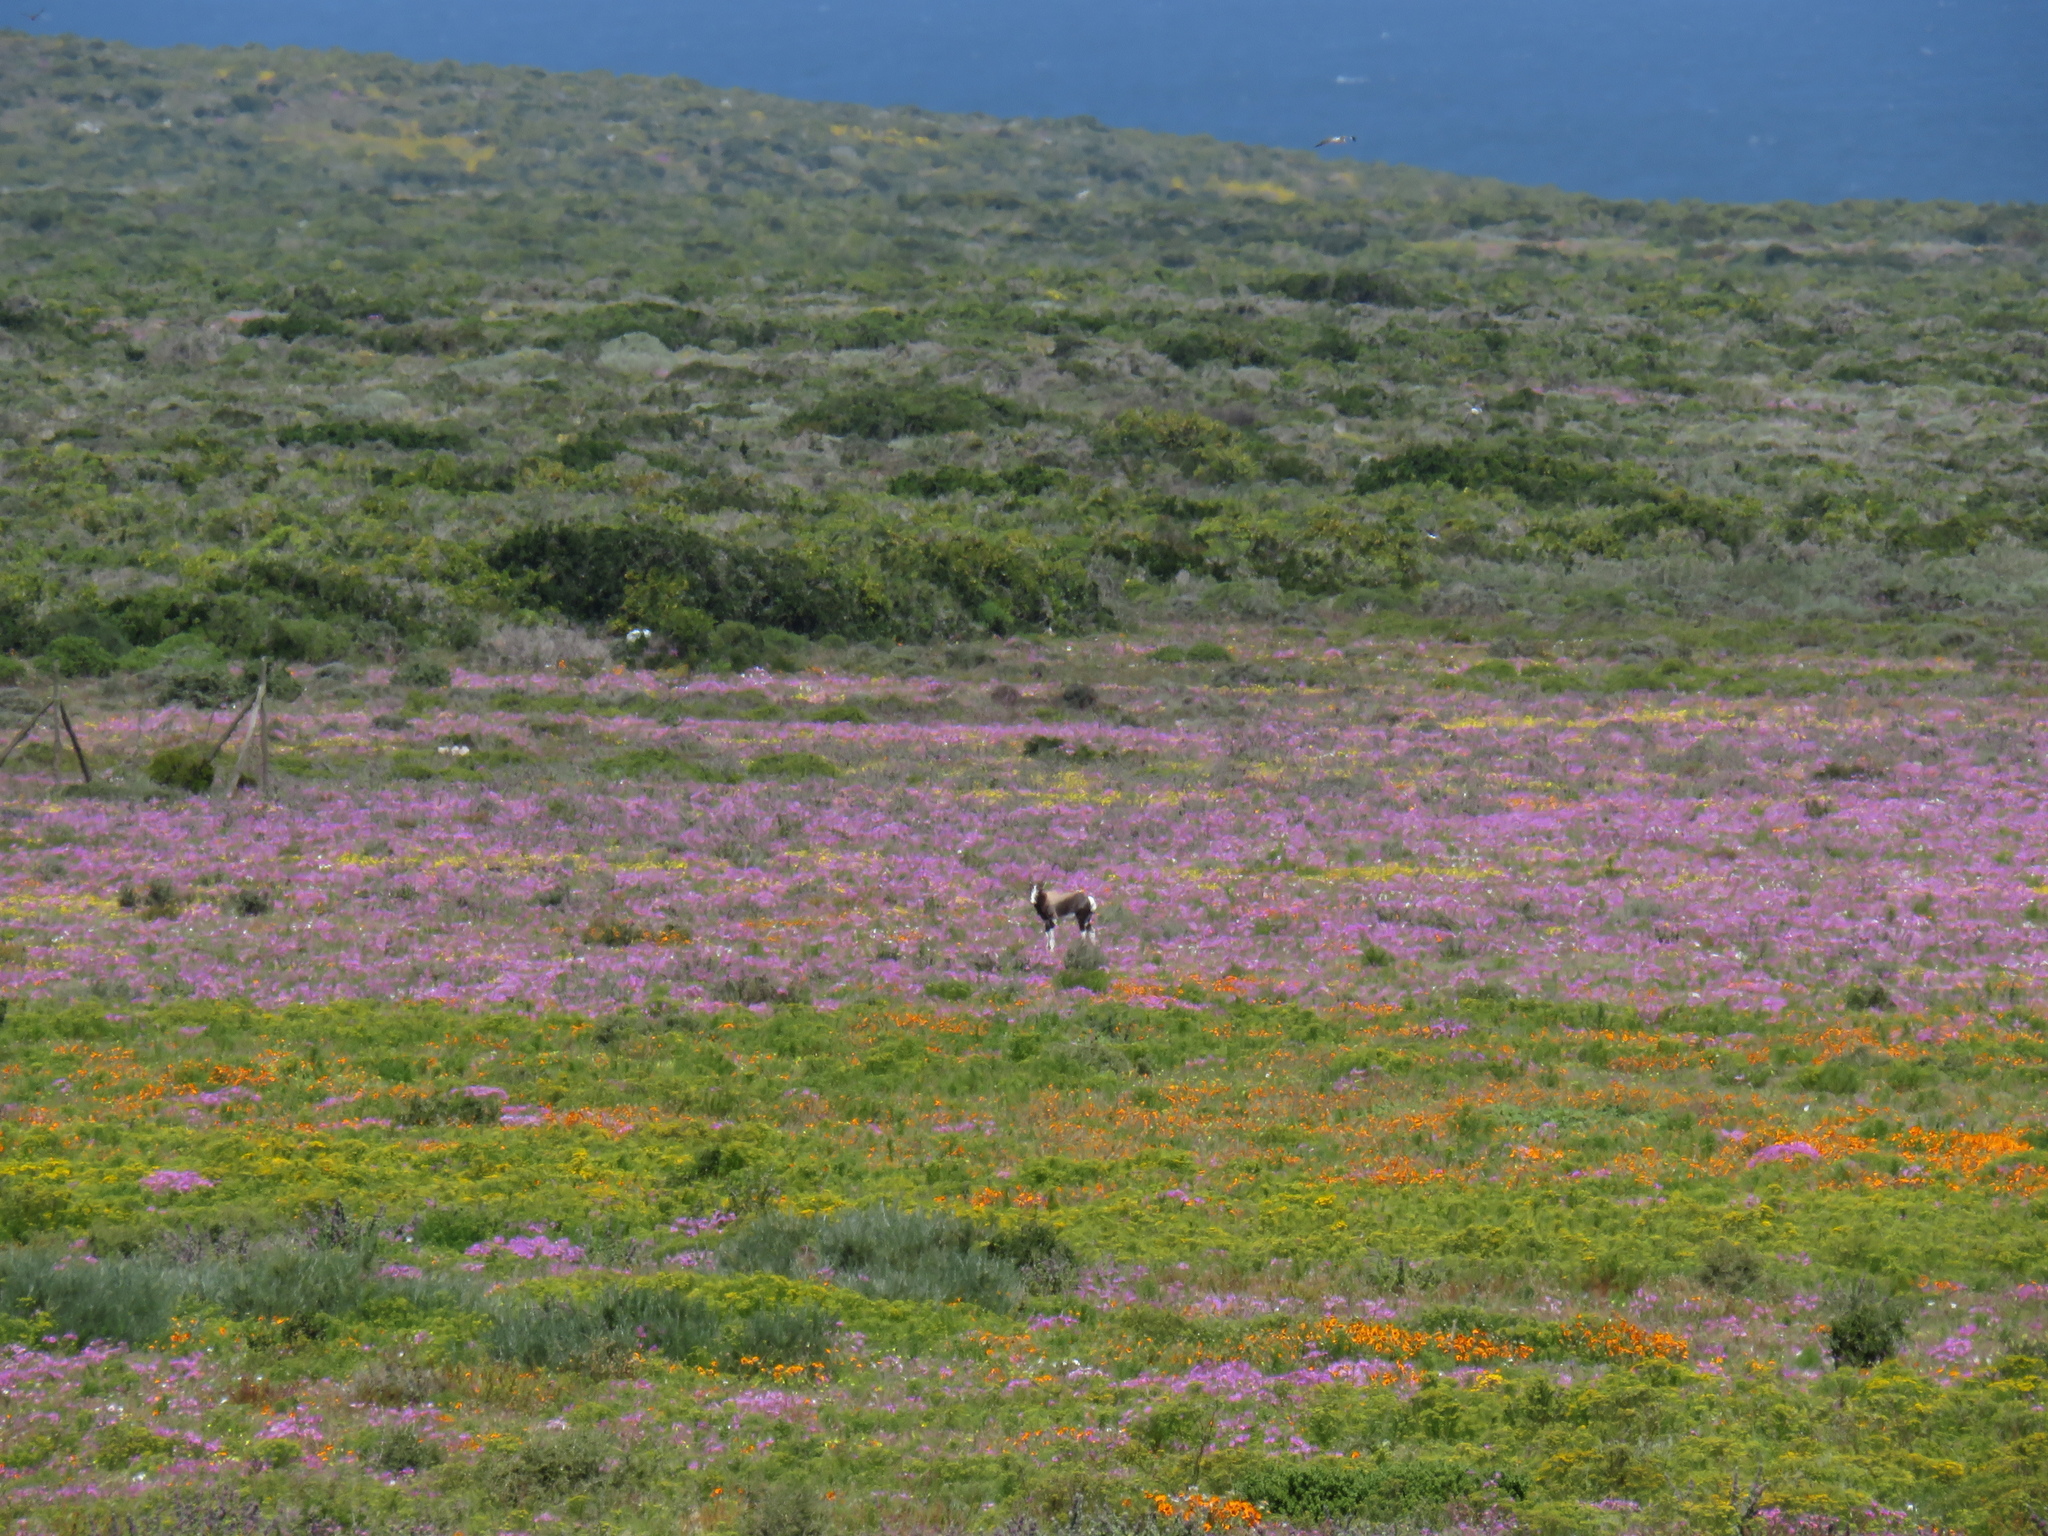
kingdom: Animalia
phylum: Chordata
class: Mammalia
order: Artiodactyla
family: Bovidae
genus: Damaliscus
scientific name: Damaliscus pygargus
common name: Bontebok
